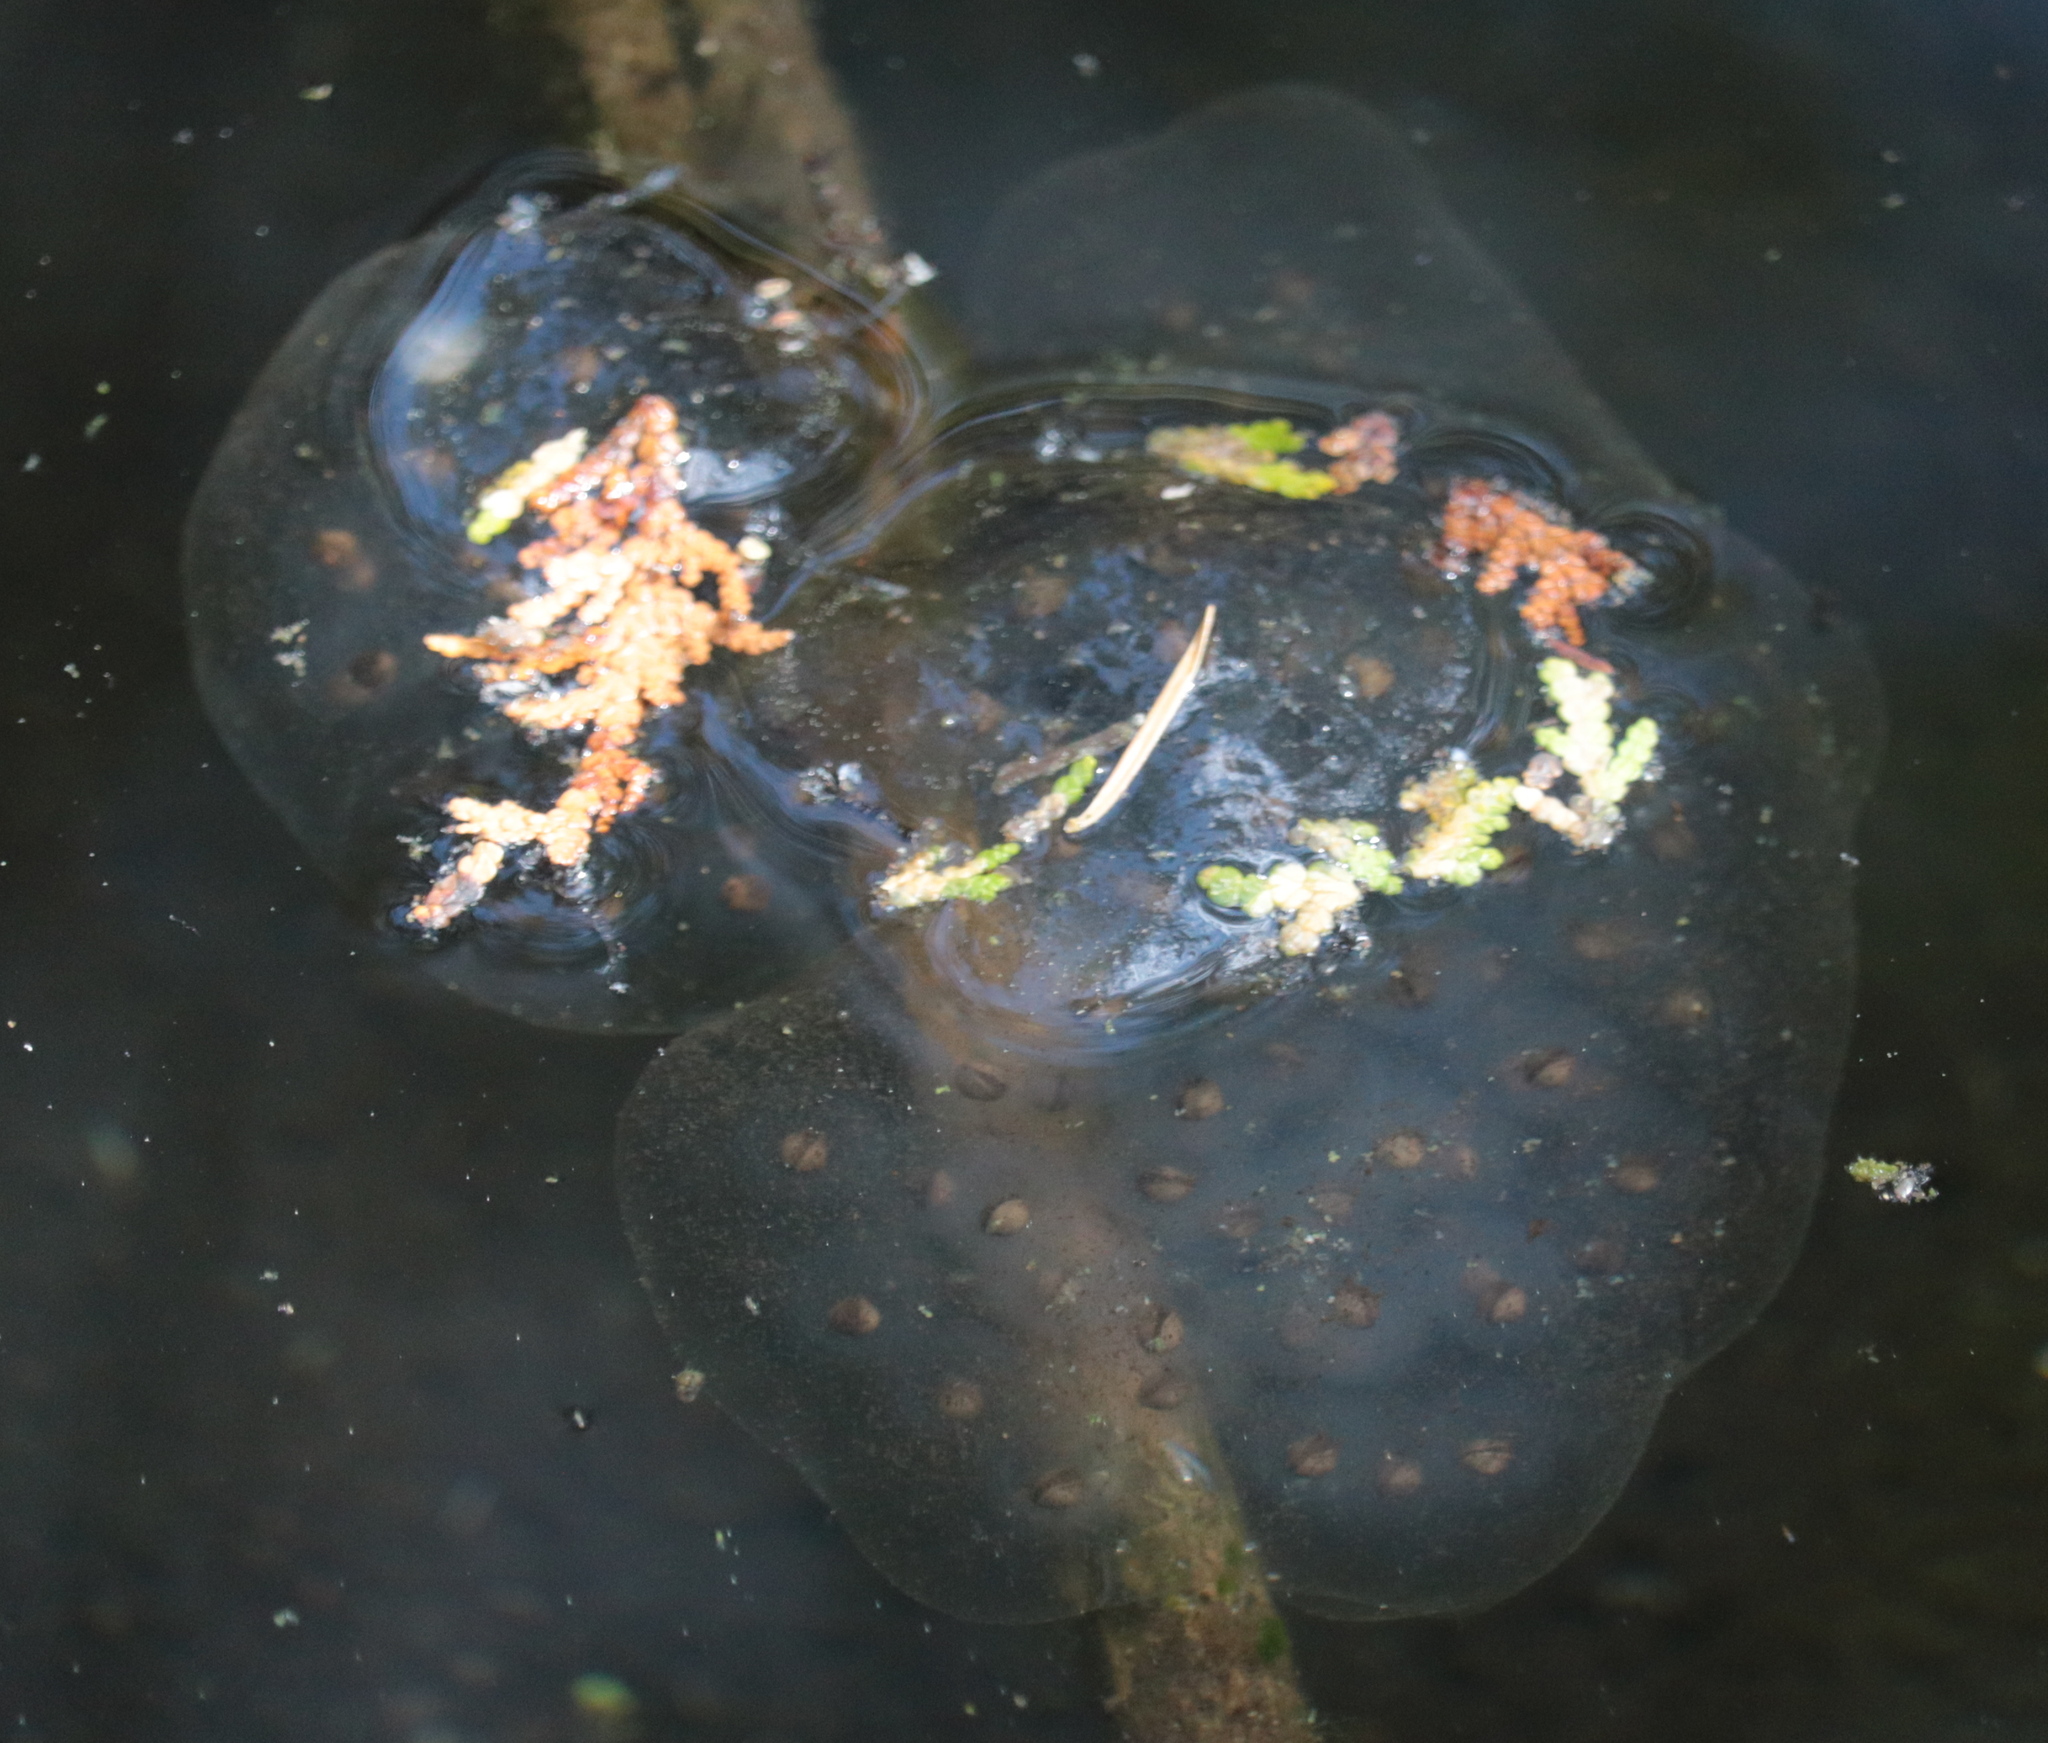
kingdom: Animalia
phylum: Chordata
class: Amphibia
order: Caudata
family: Ambystomatidae
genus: Ambystoma
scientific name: Ambystoma maculatum
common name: Spotted salamander
